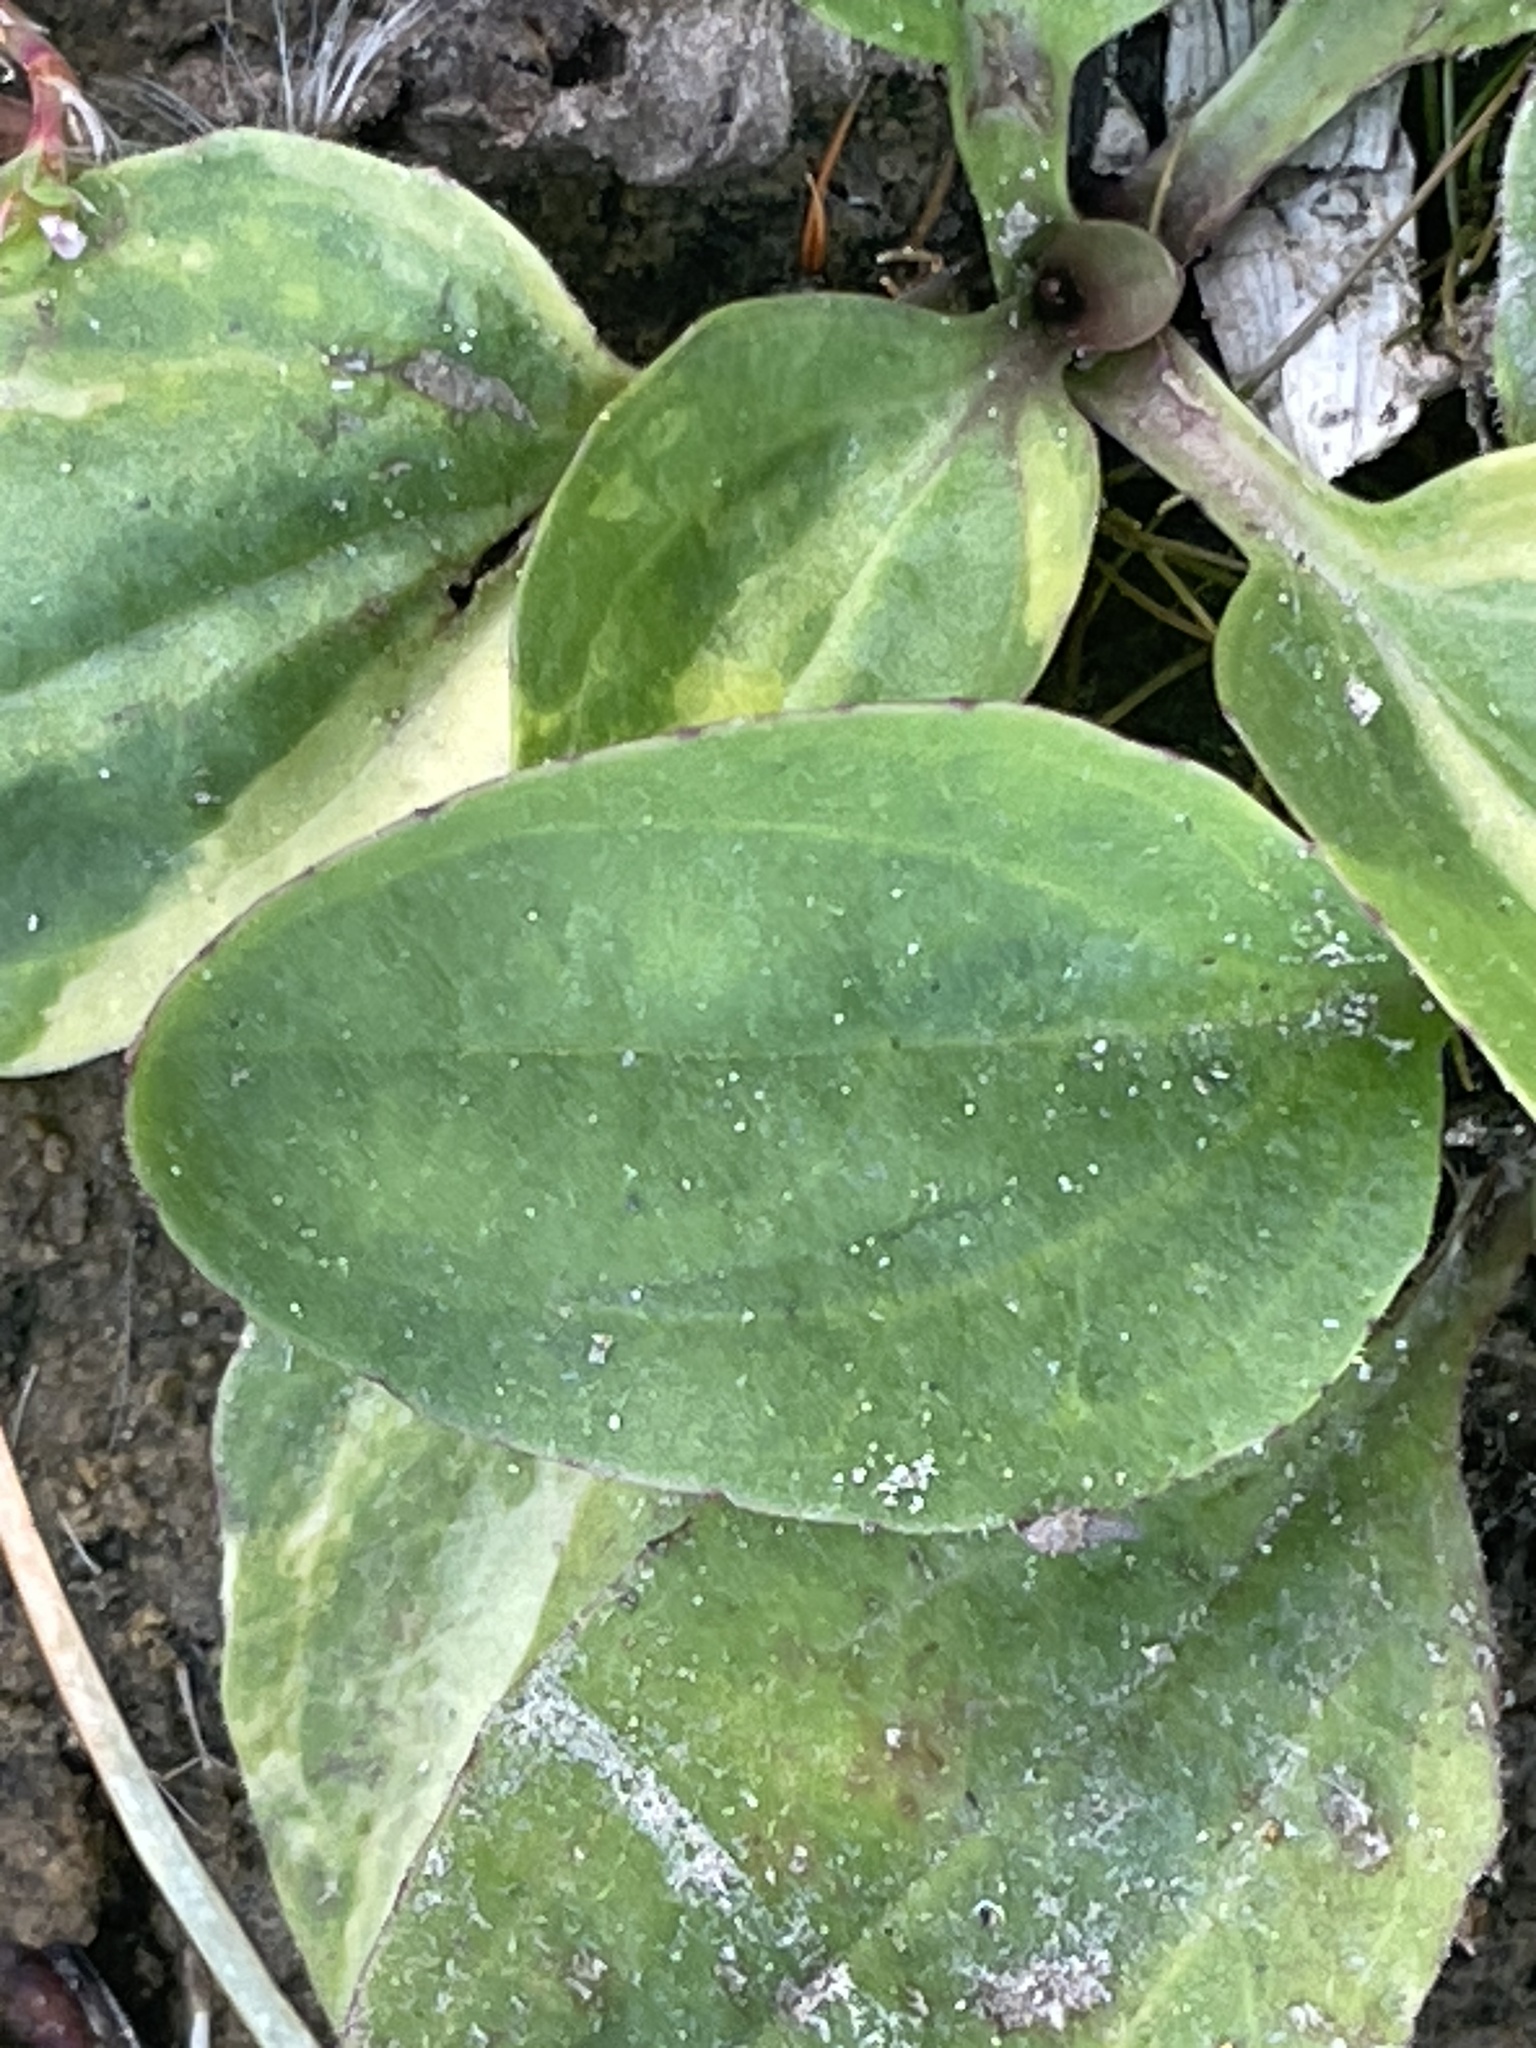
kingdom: Plantae
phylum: Tracheophyta
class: Magnoliopsida
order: Lamiales
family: Plantaginaceae
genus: Plantago
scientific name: Plantago major
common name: Common plantain
